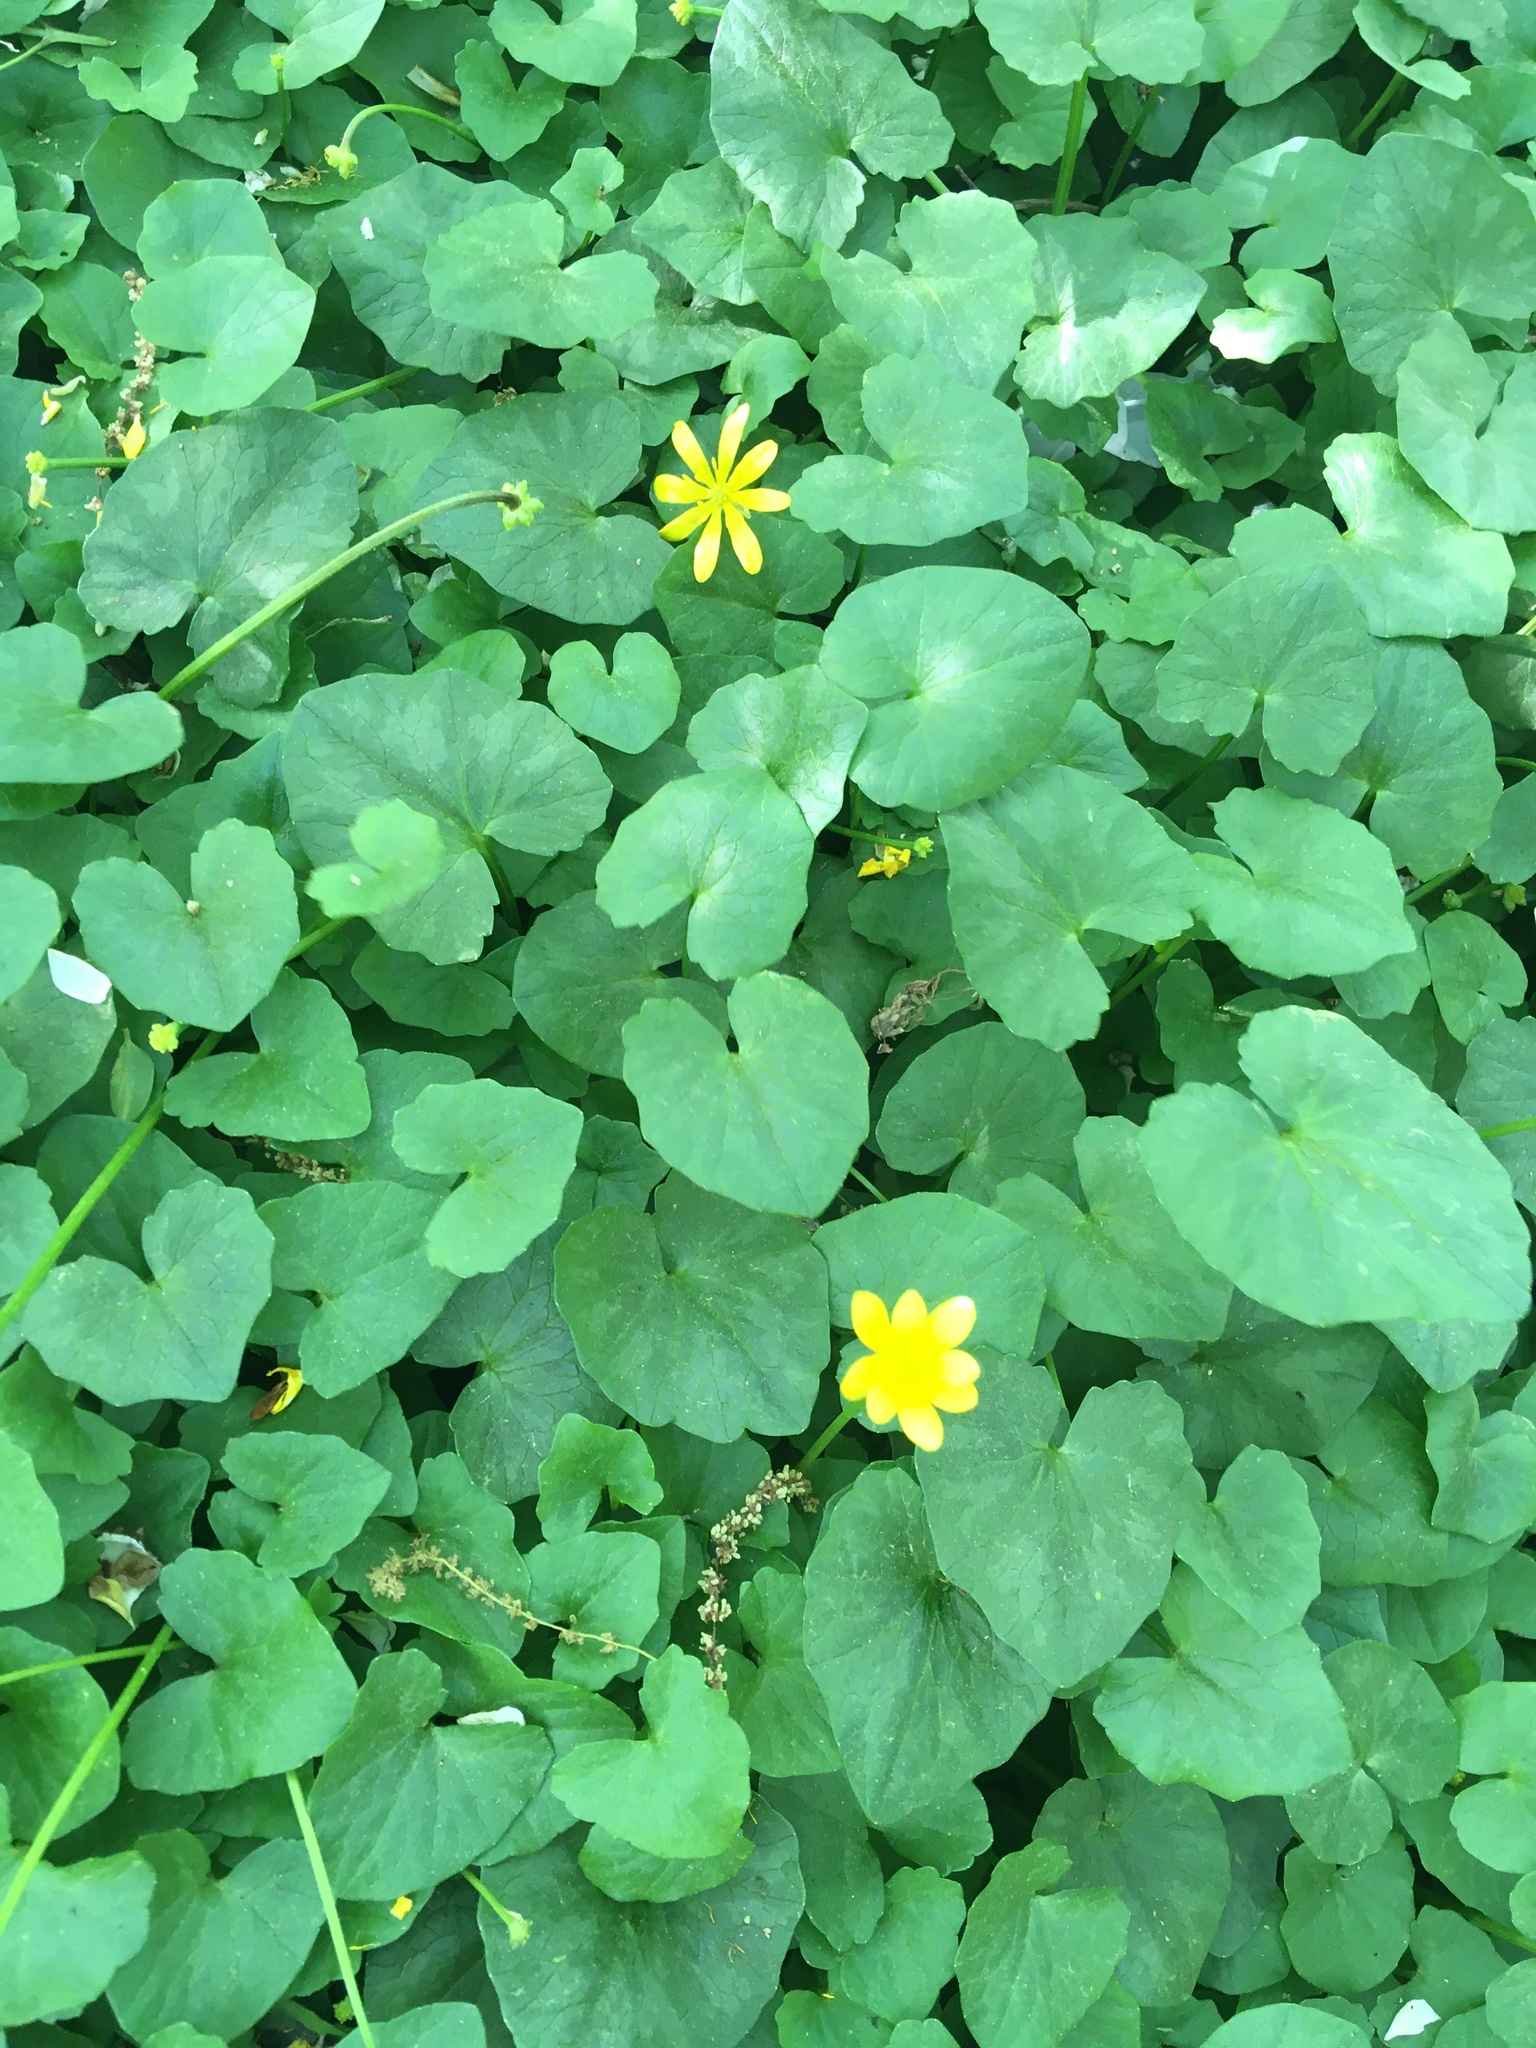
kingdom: Plantae
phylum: Tracheophyta
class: Magnoliopsida
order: Ranunculales
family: Ranunculaceae
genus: Ficaria
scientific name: Ficaria verna
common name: Lesser celandine
